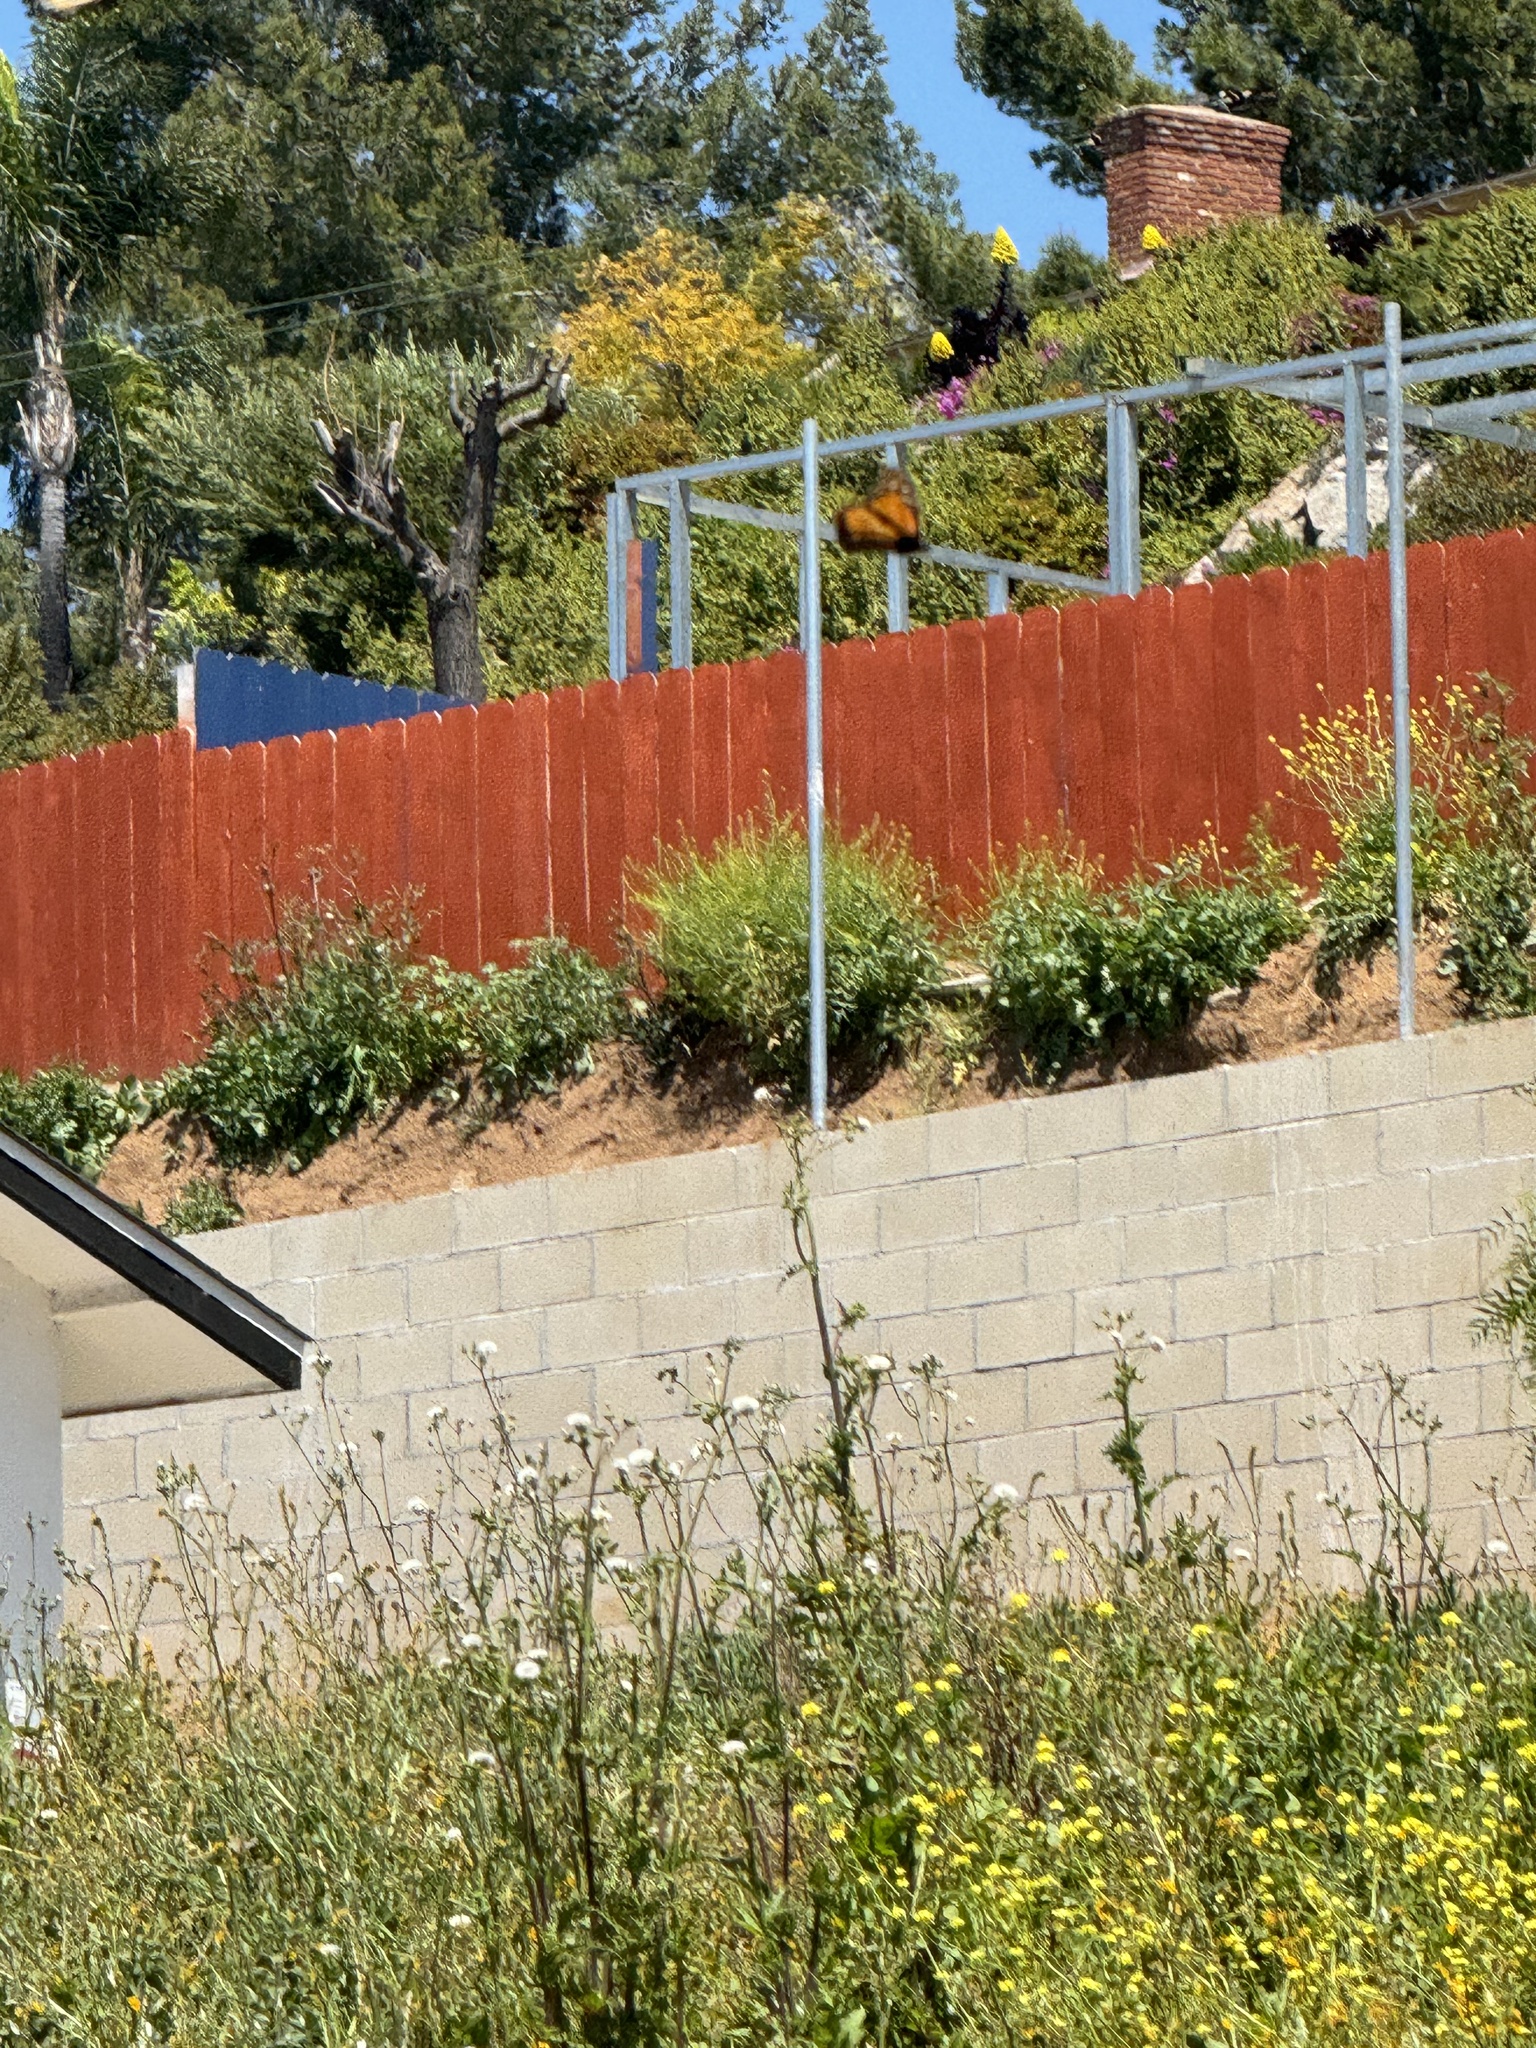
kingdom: Animalia
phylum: Arthropoda
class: Insecta
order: Lepidoptera
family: Nymphalidae
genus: Danaus
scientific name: Danaus plexippus
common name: Monarch
